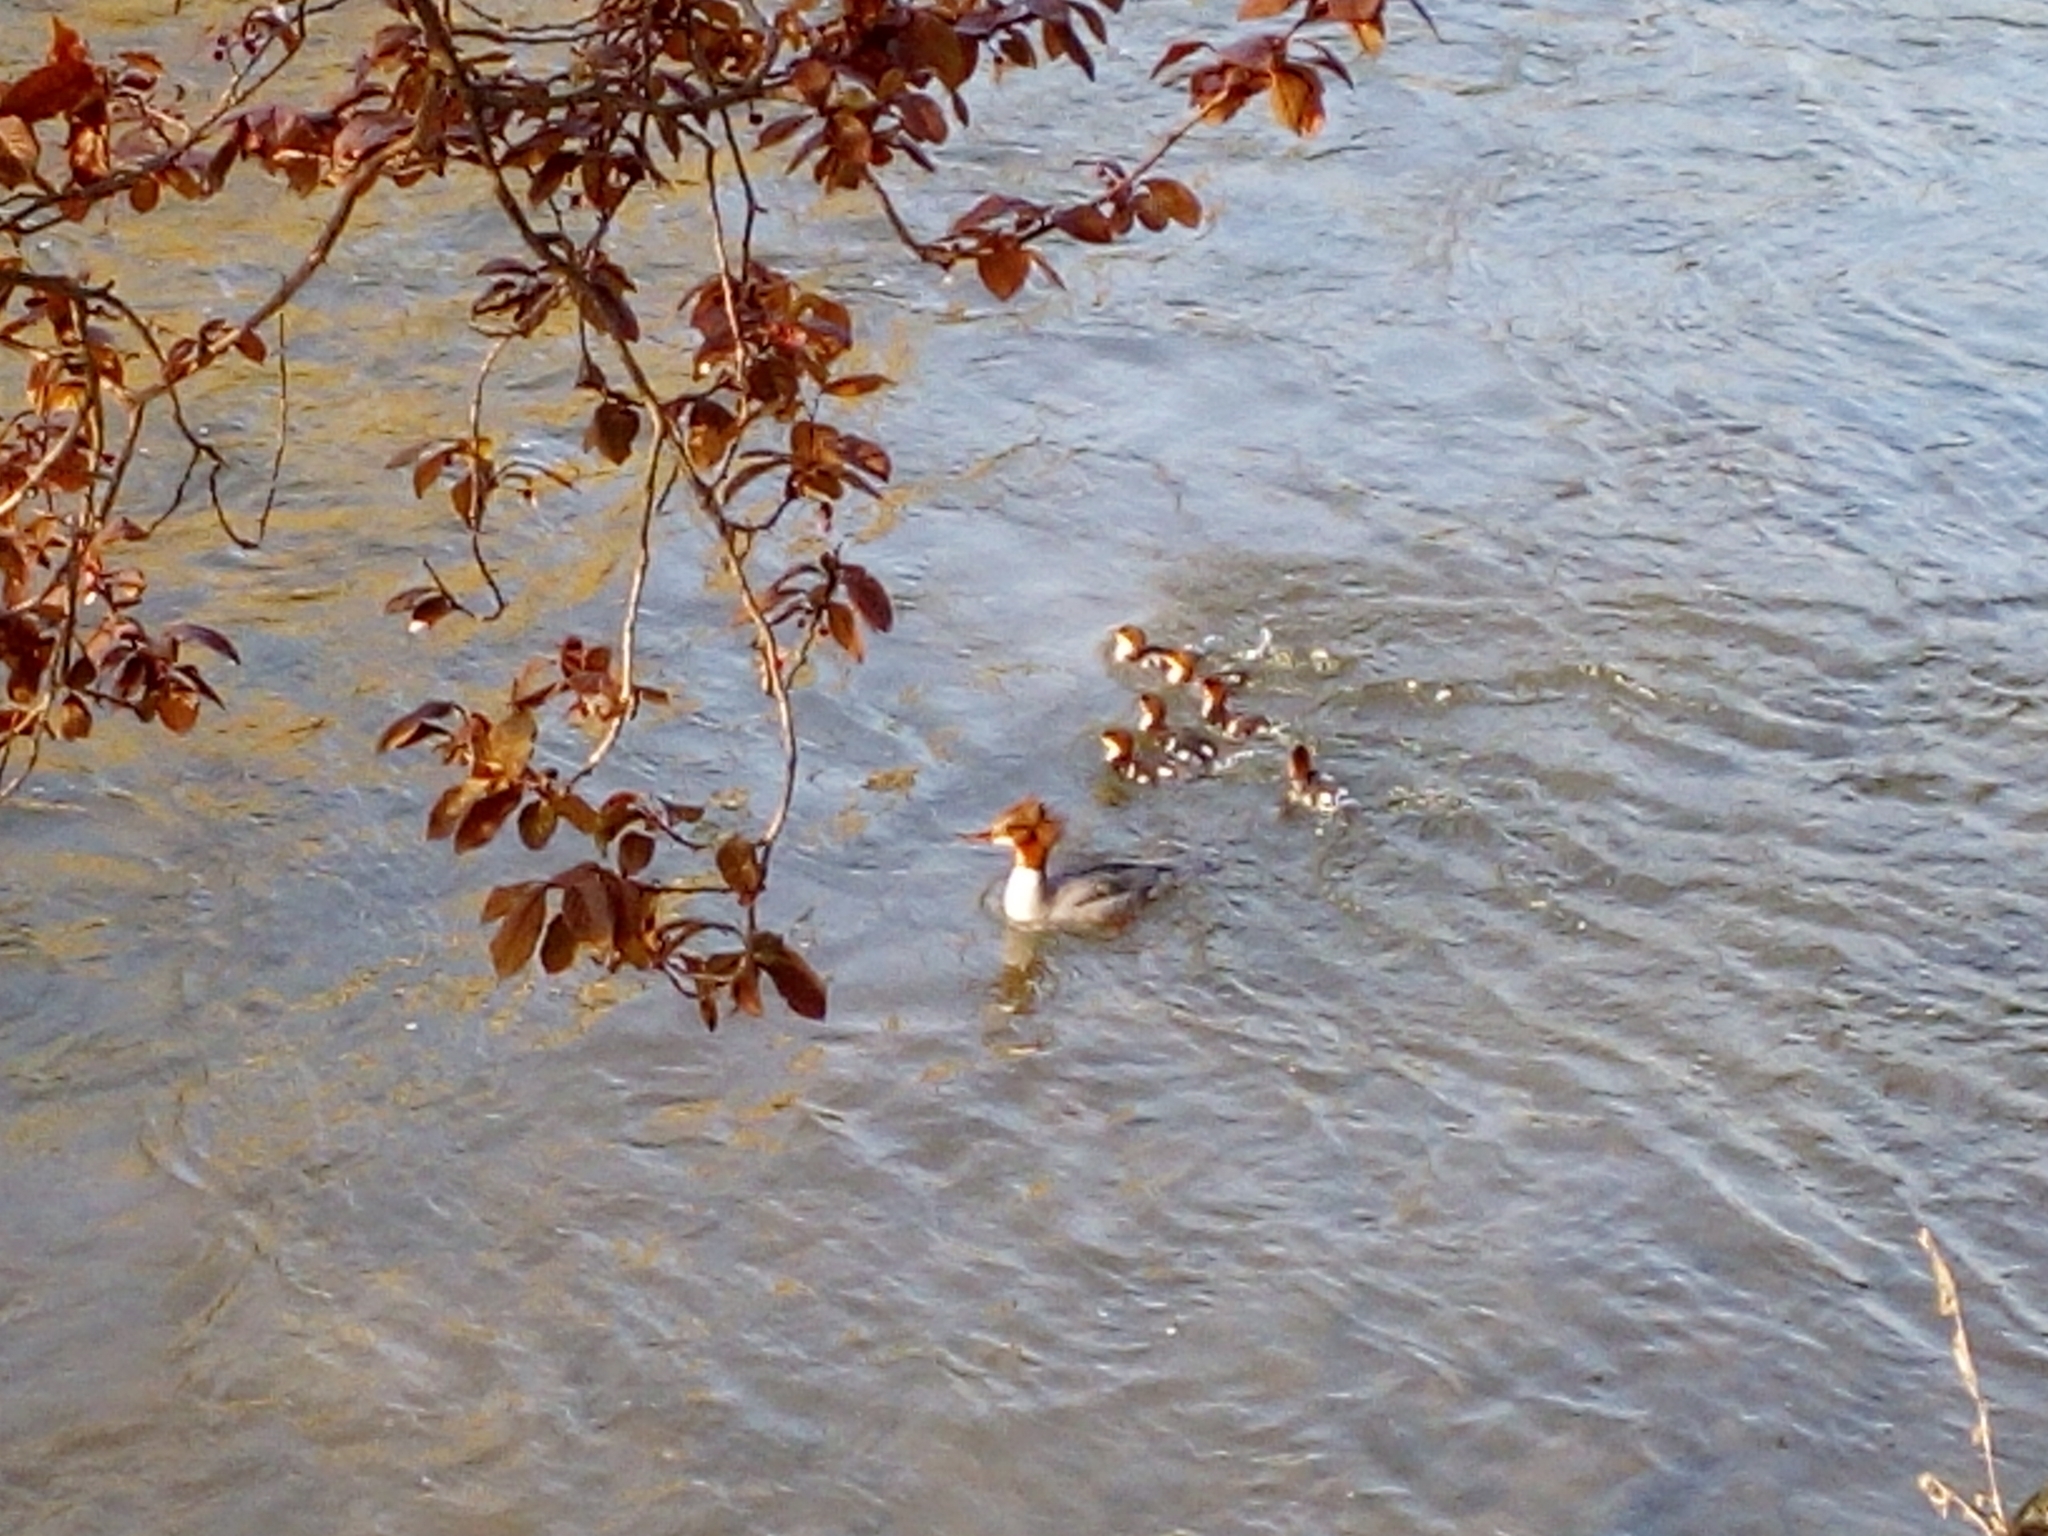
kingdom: Animalia
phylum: Chordata
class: Aves
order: Anseriformes
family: Anatidae
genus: Mergus
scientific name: Mergus merganser
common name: Common merganser
